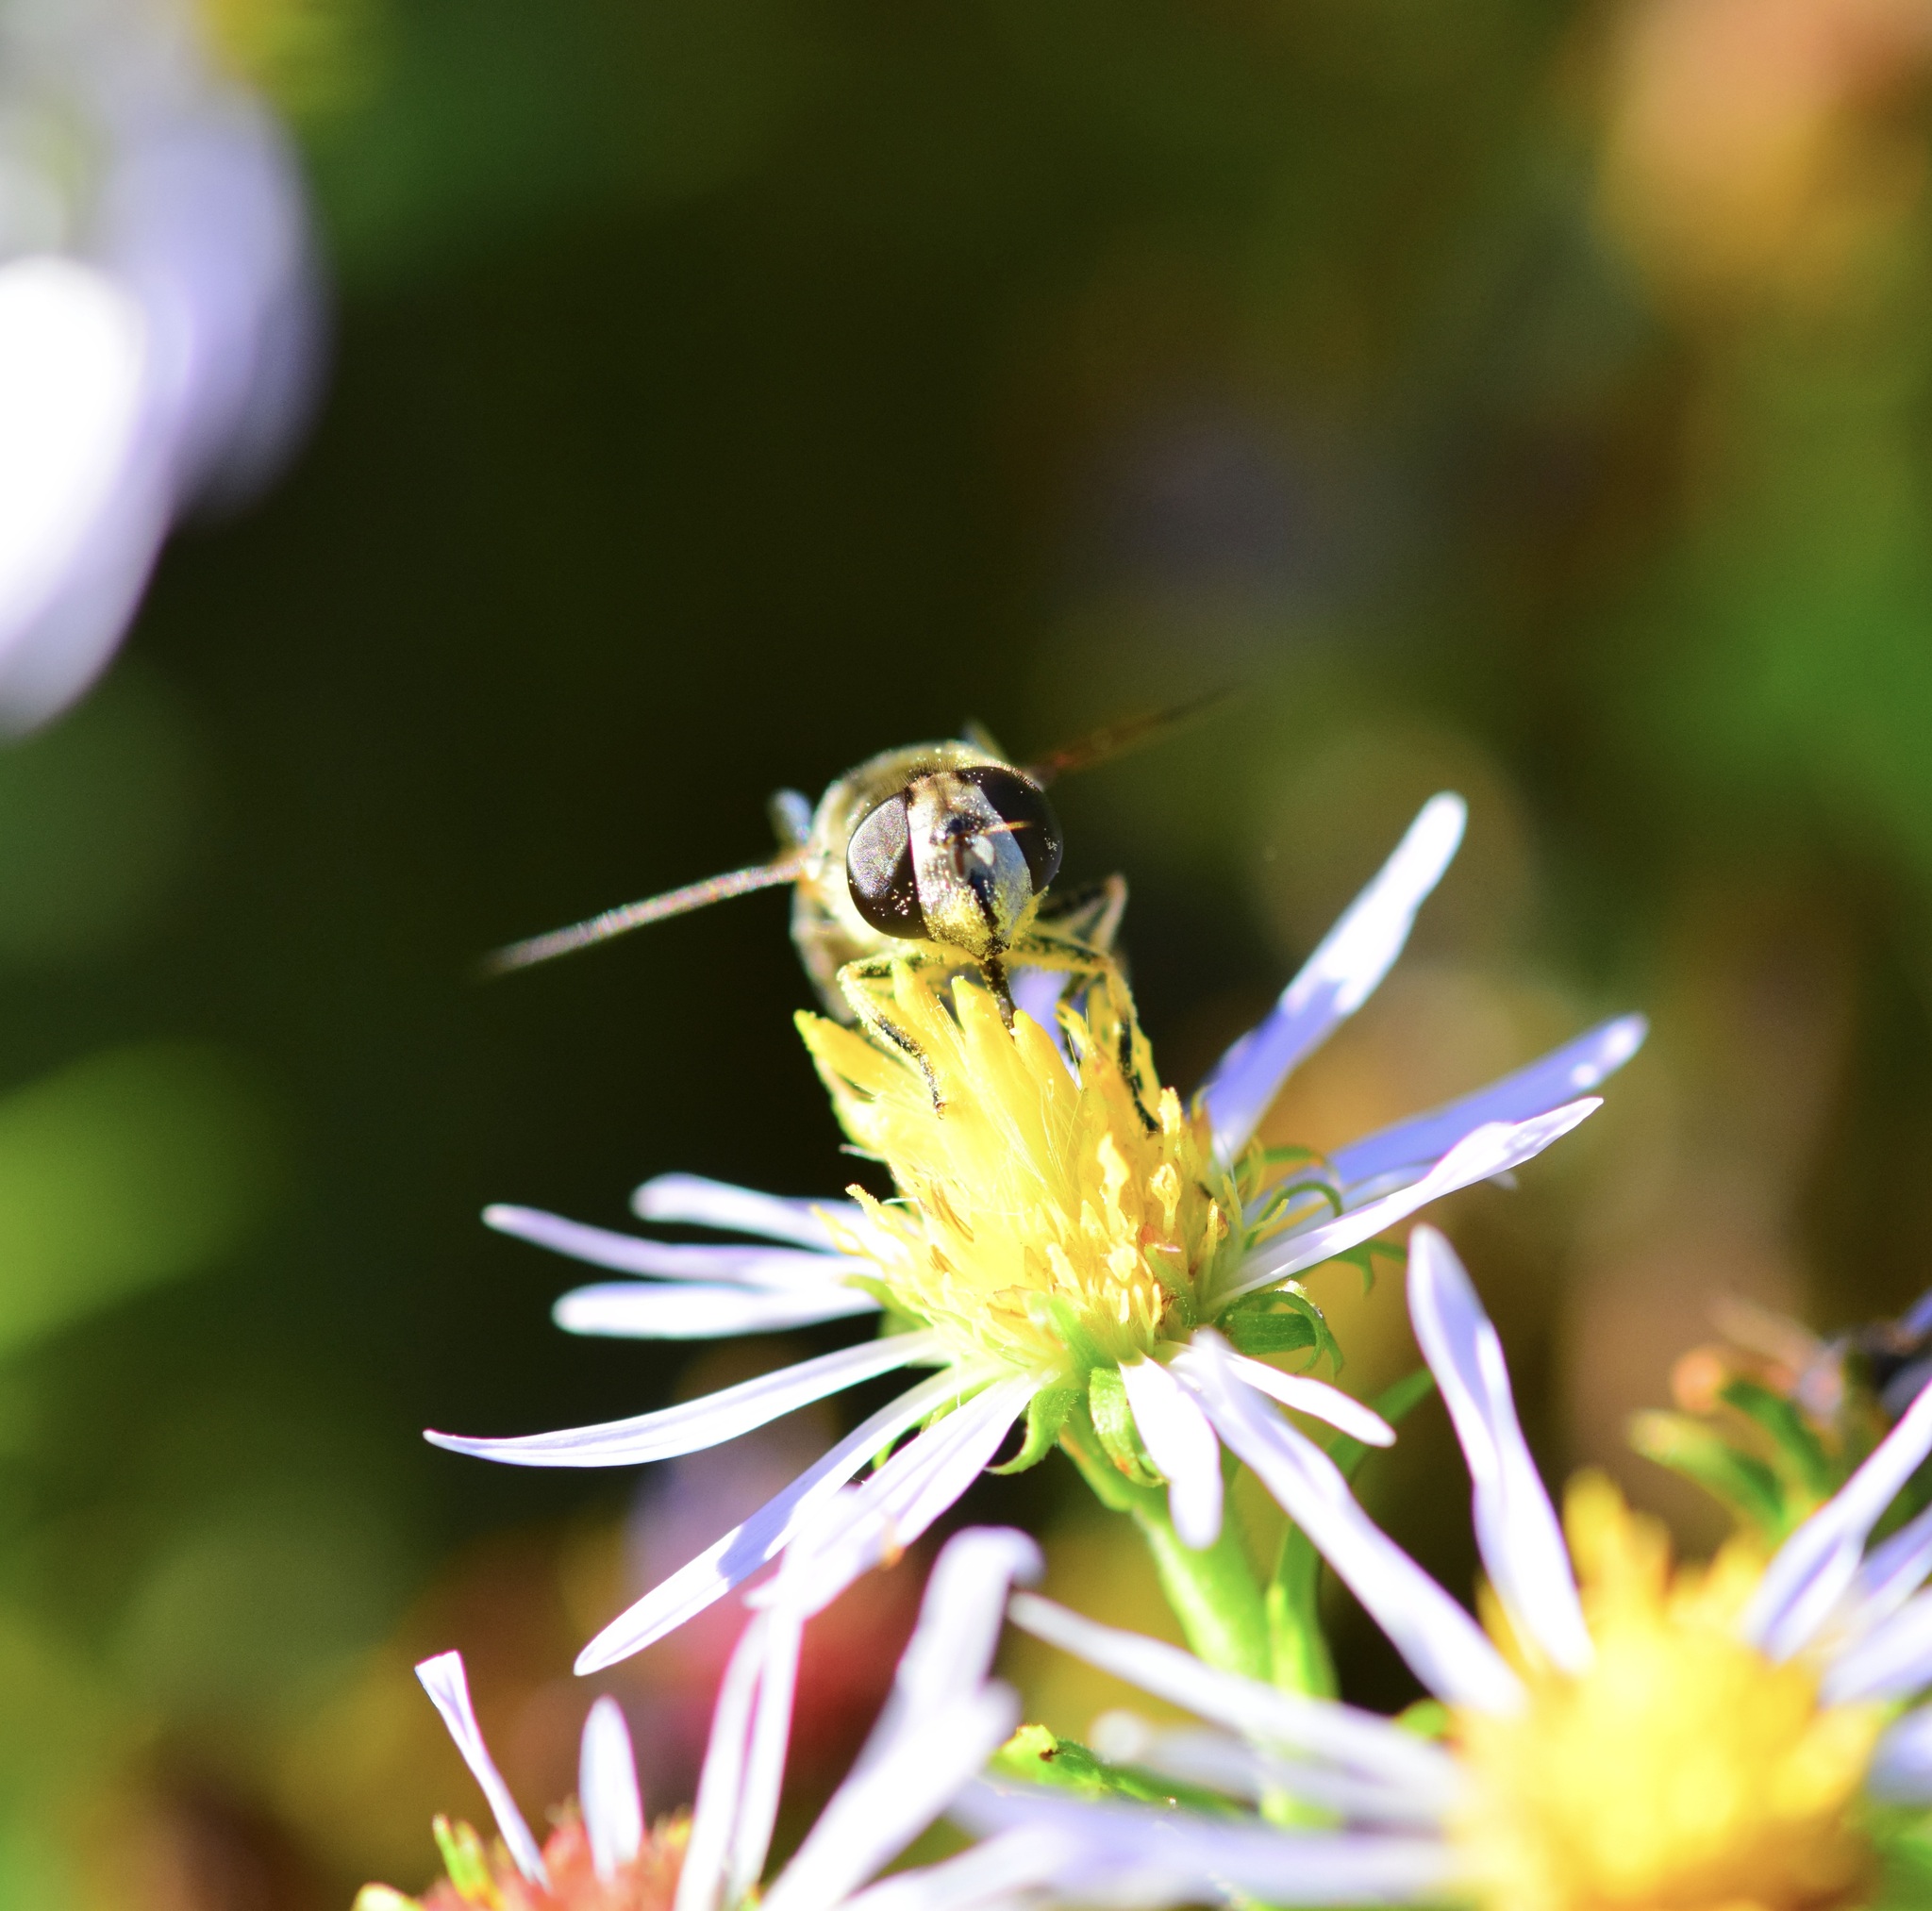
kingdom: Animalia
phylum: Arthropoda
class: Insecta
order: Diptera
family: Syrphidae
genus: Eristalis
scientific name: Eristalis dimidiata
